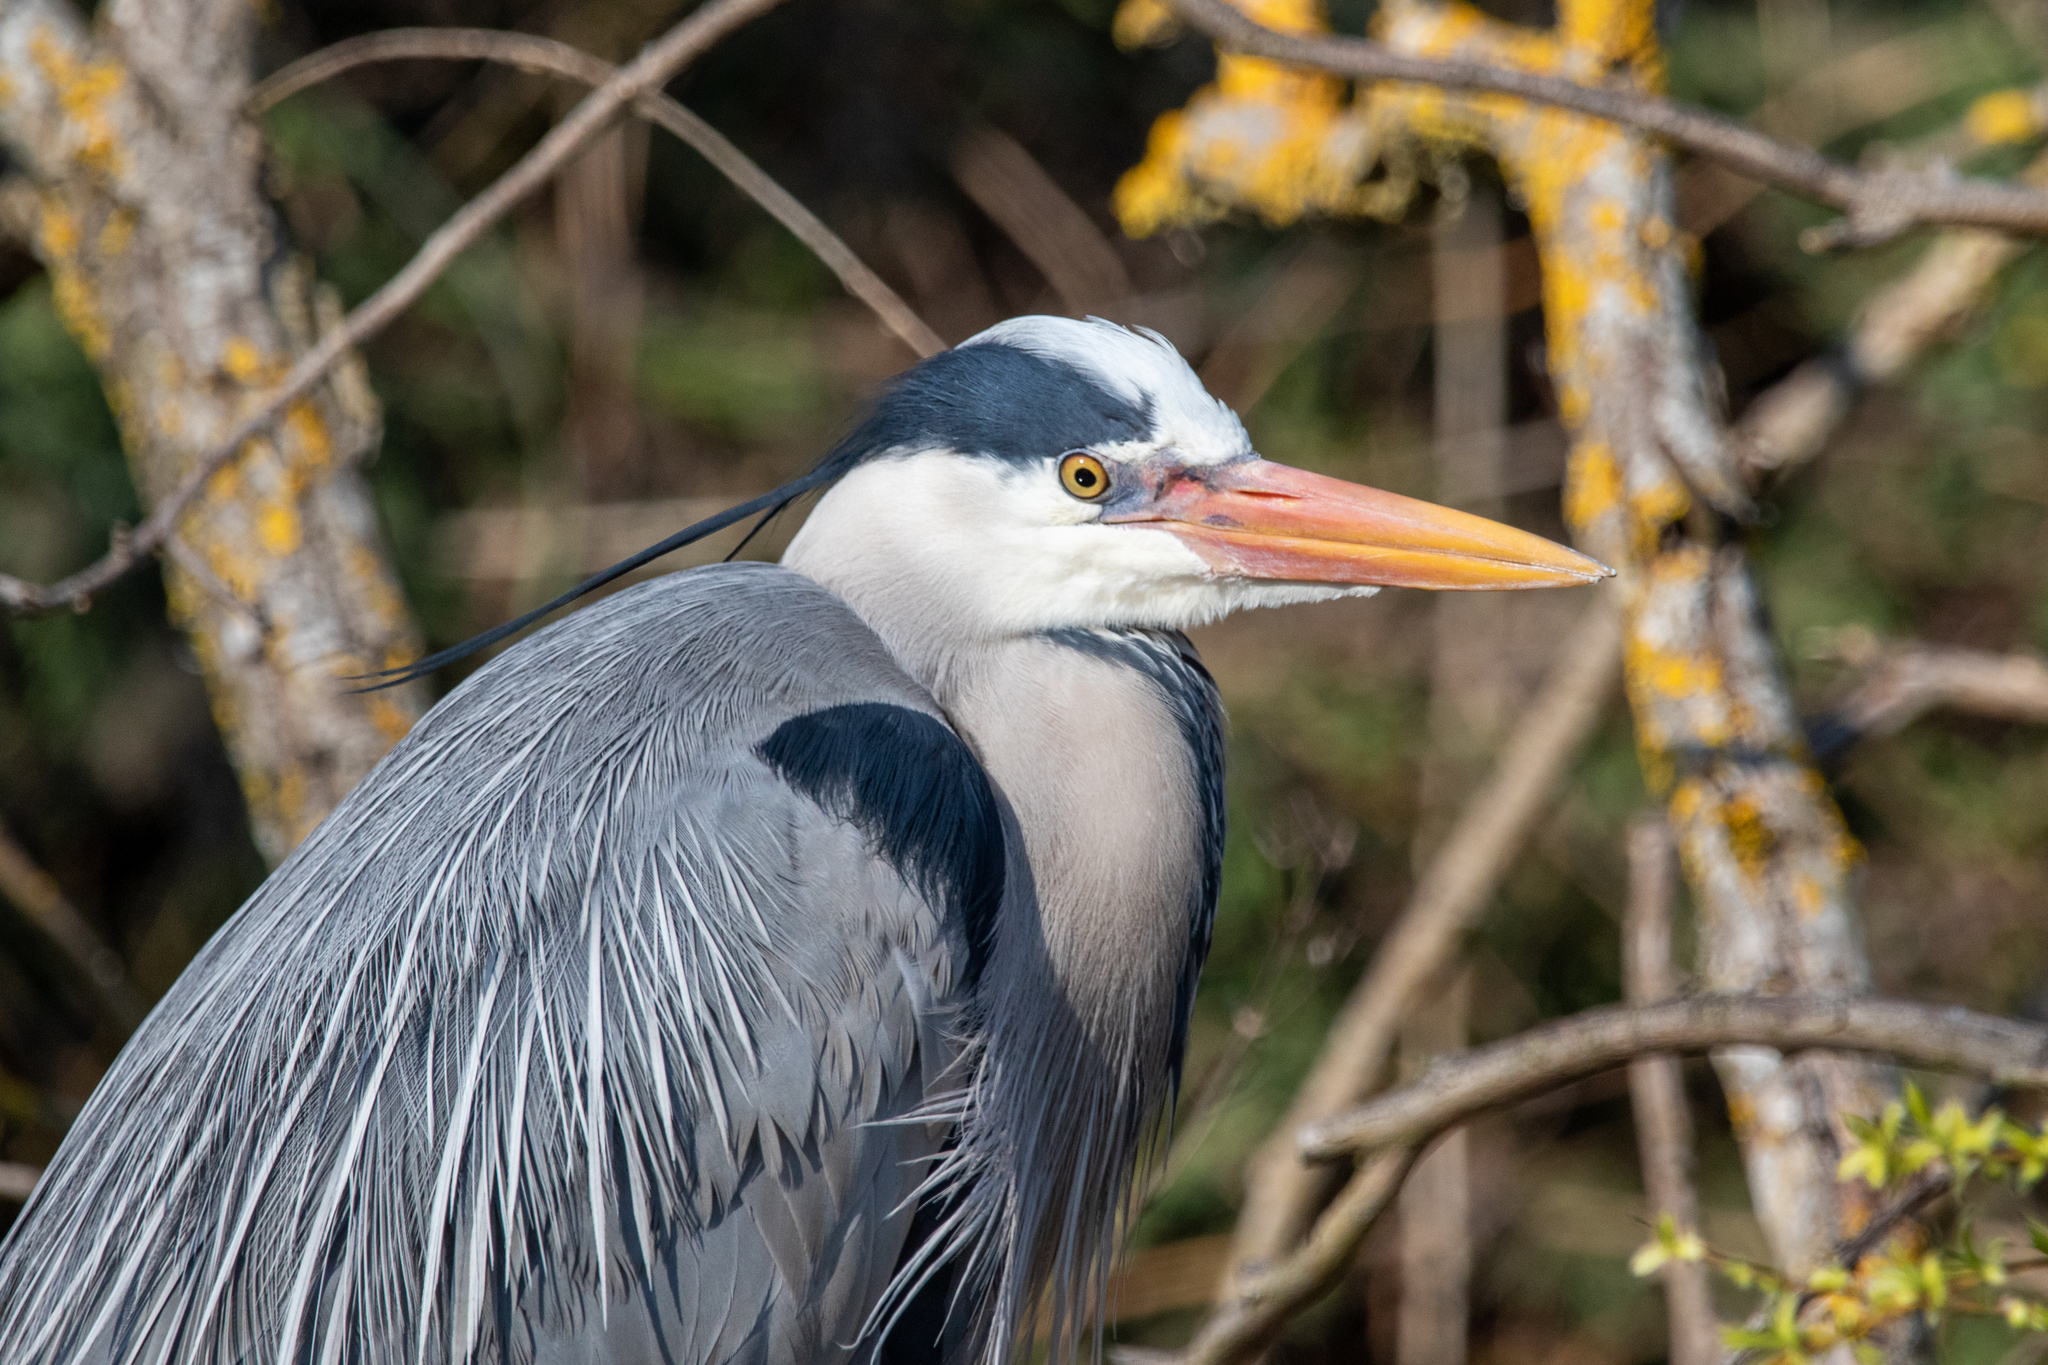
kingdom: Animalia
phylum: Chordata
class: Aves
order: Pelecaniformes
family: Ardeidae
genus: Ardea
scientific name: Ardea cinerea
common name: Grey heron
